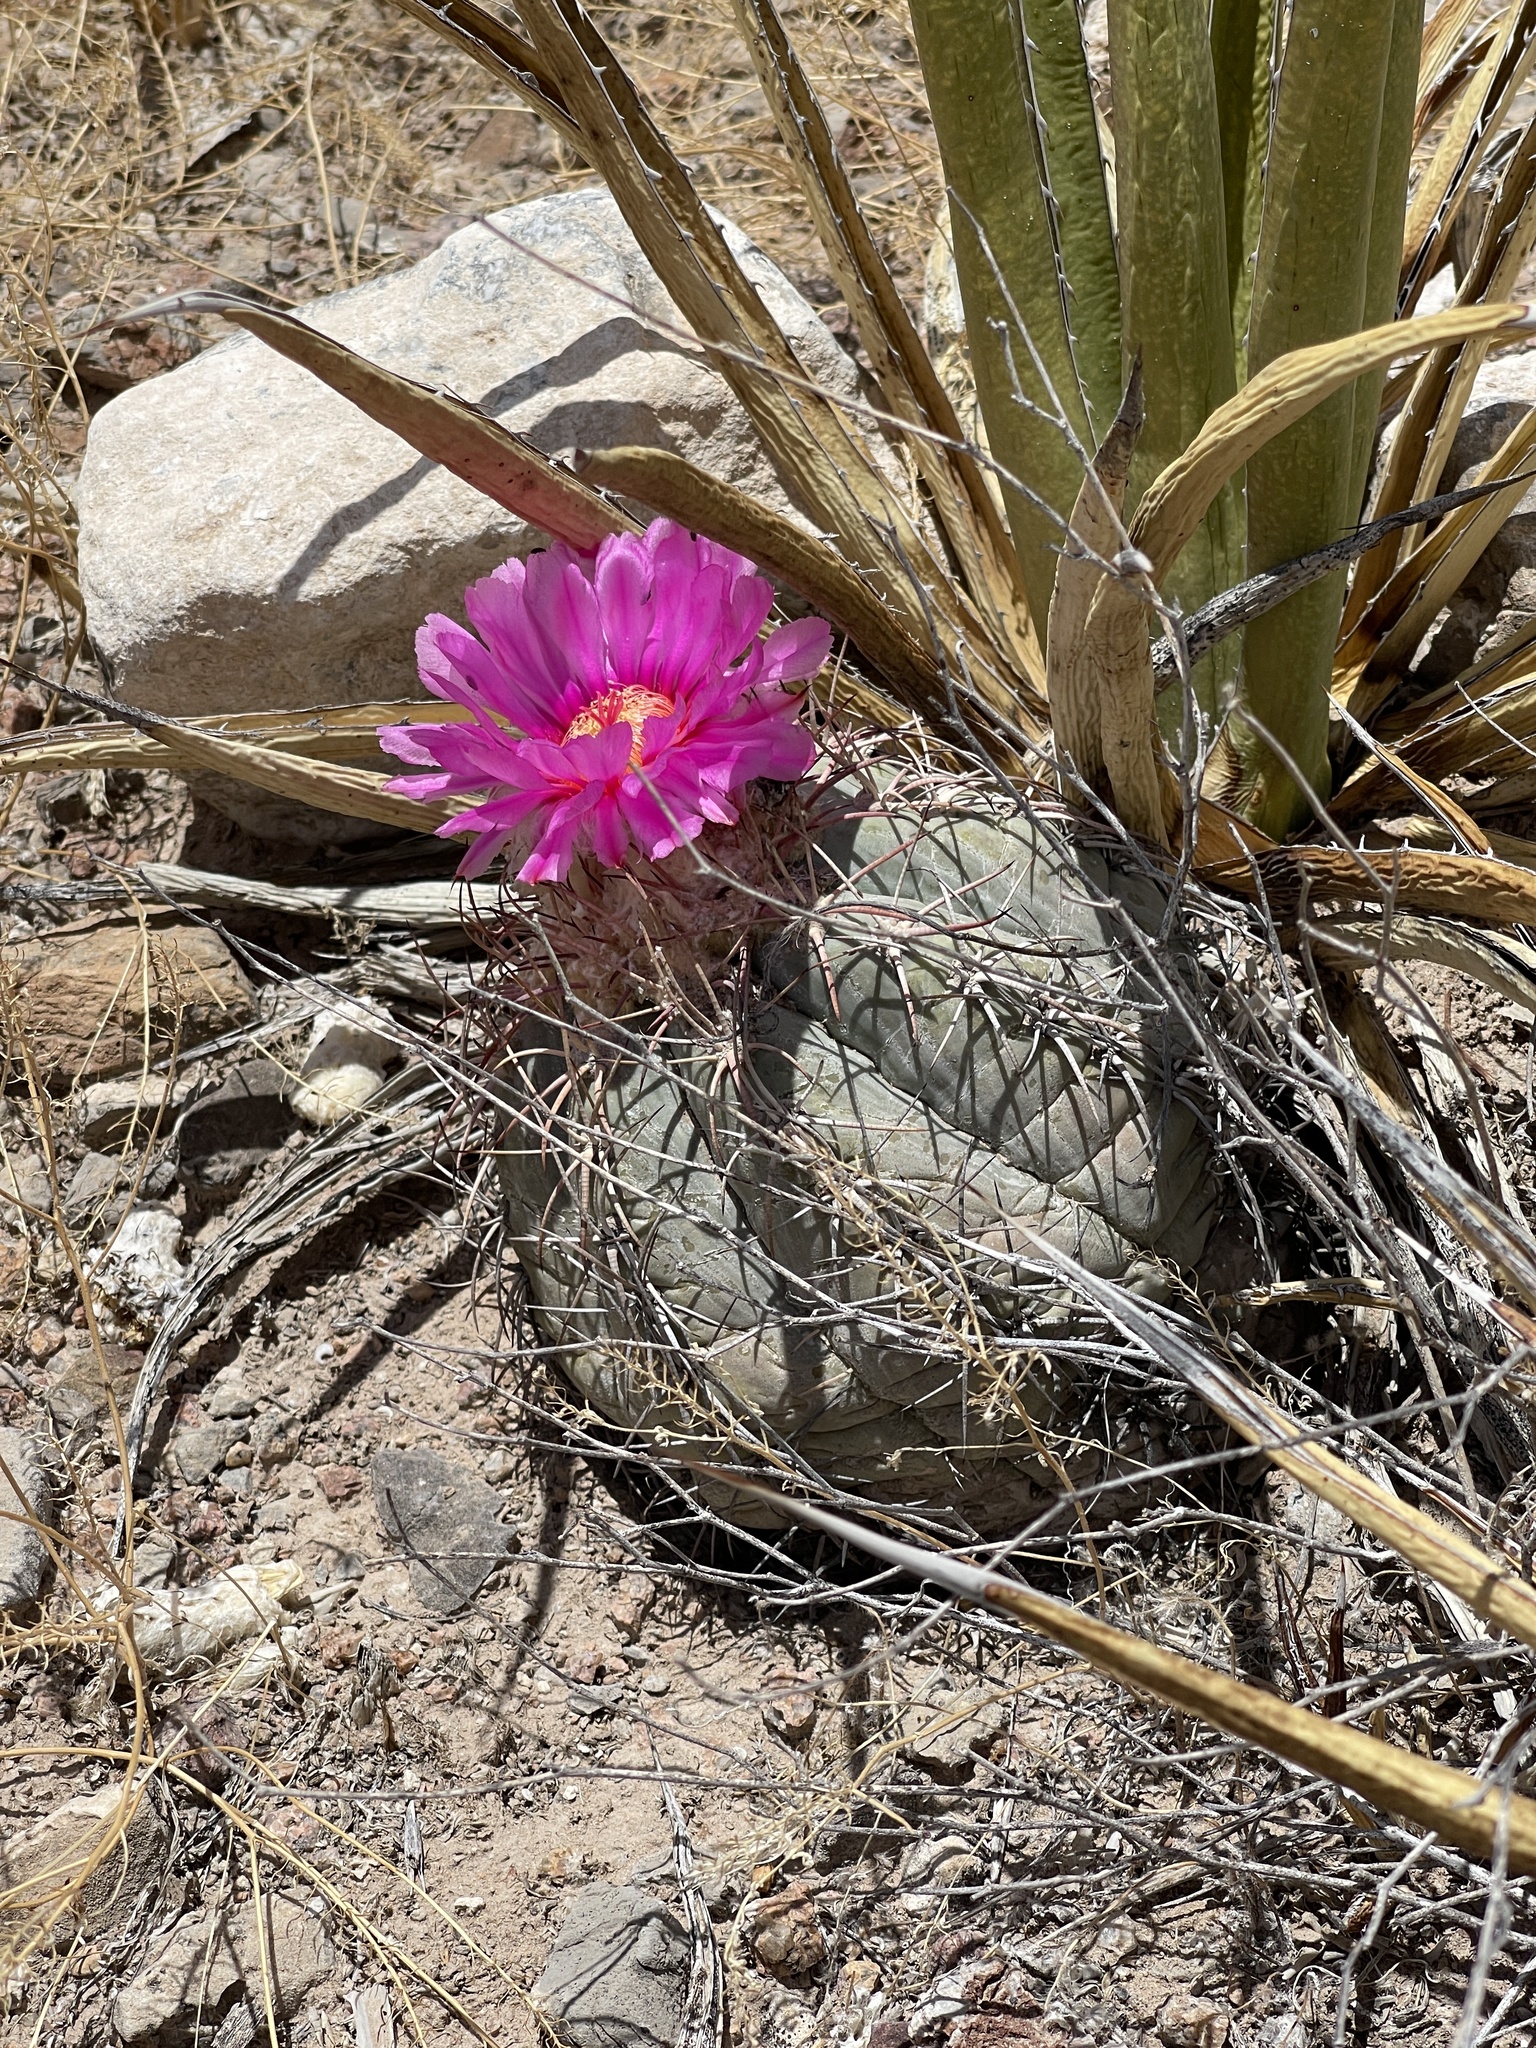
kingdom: Plantae
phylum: Tracheophyta
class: Magnoliopsida
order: Caryophyllales
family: Cactaceae
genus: Echinocactus
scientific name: Echinocactus horizonthalonius
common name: Devilshead
